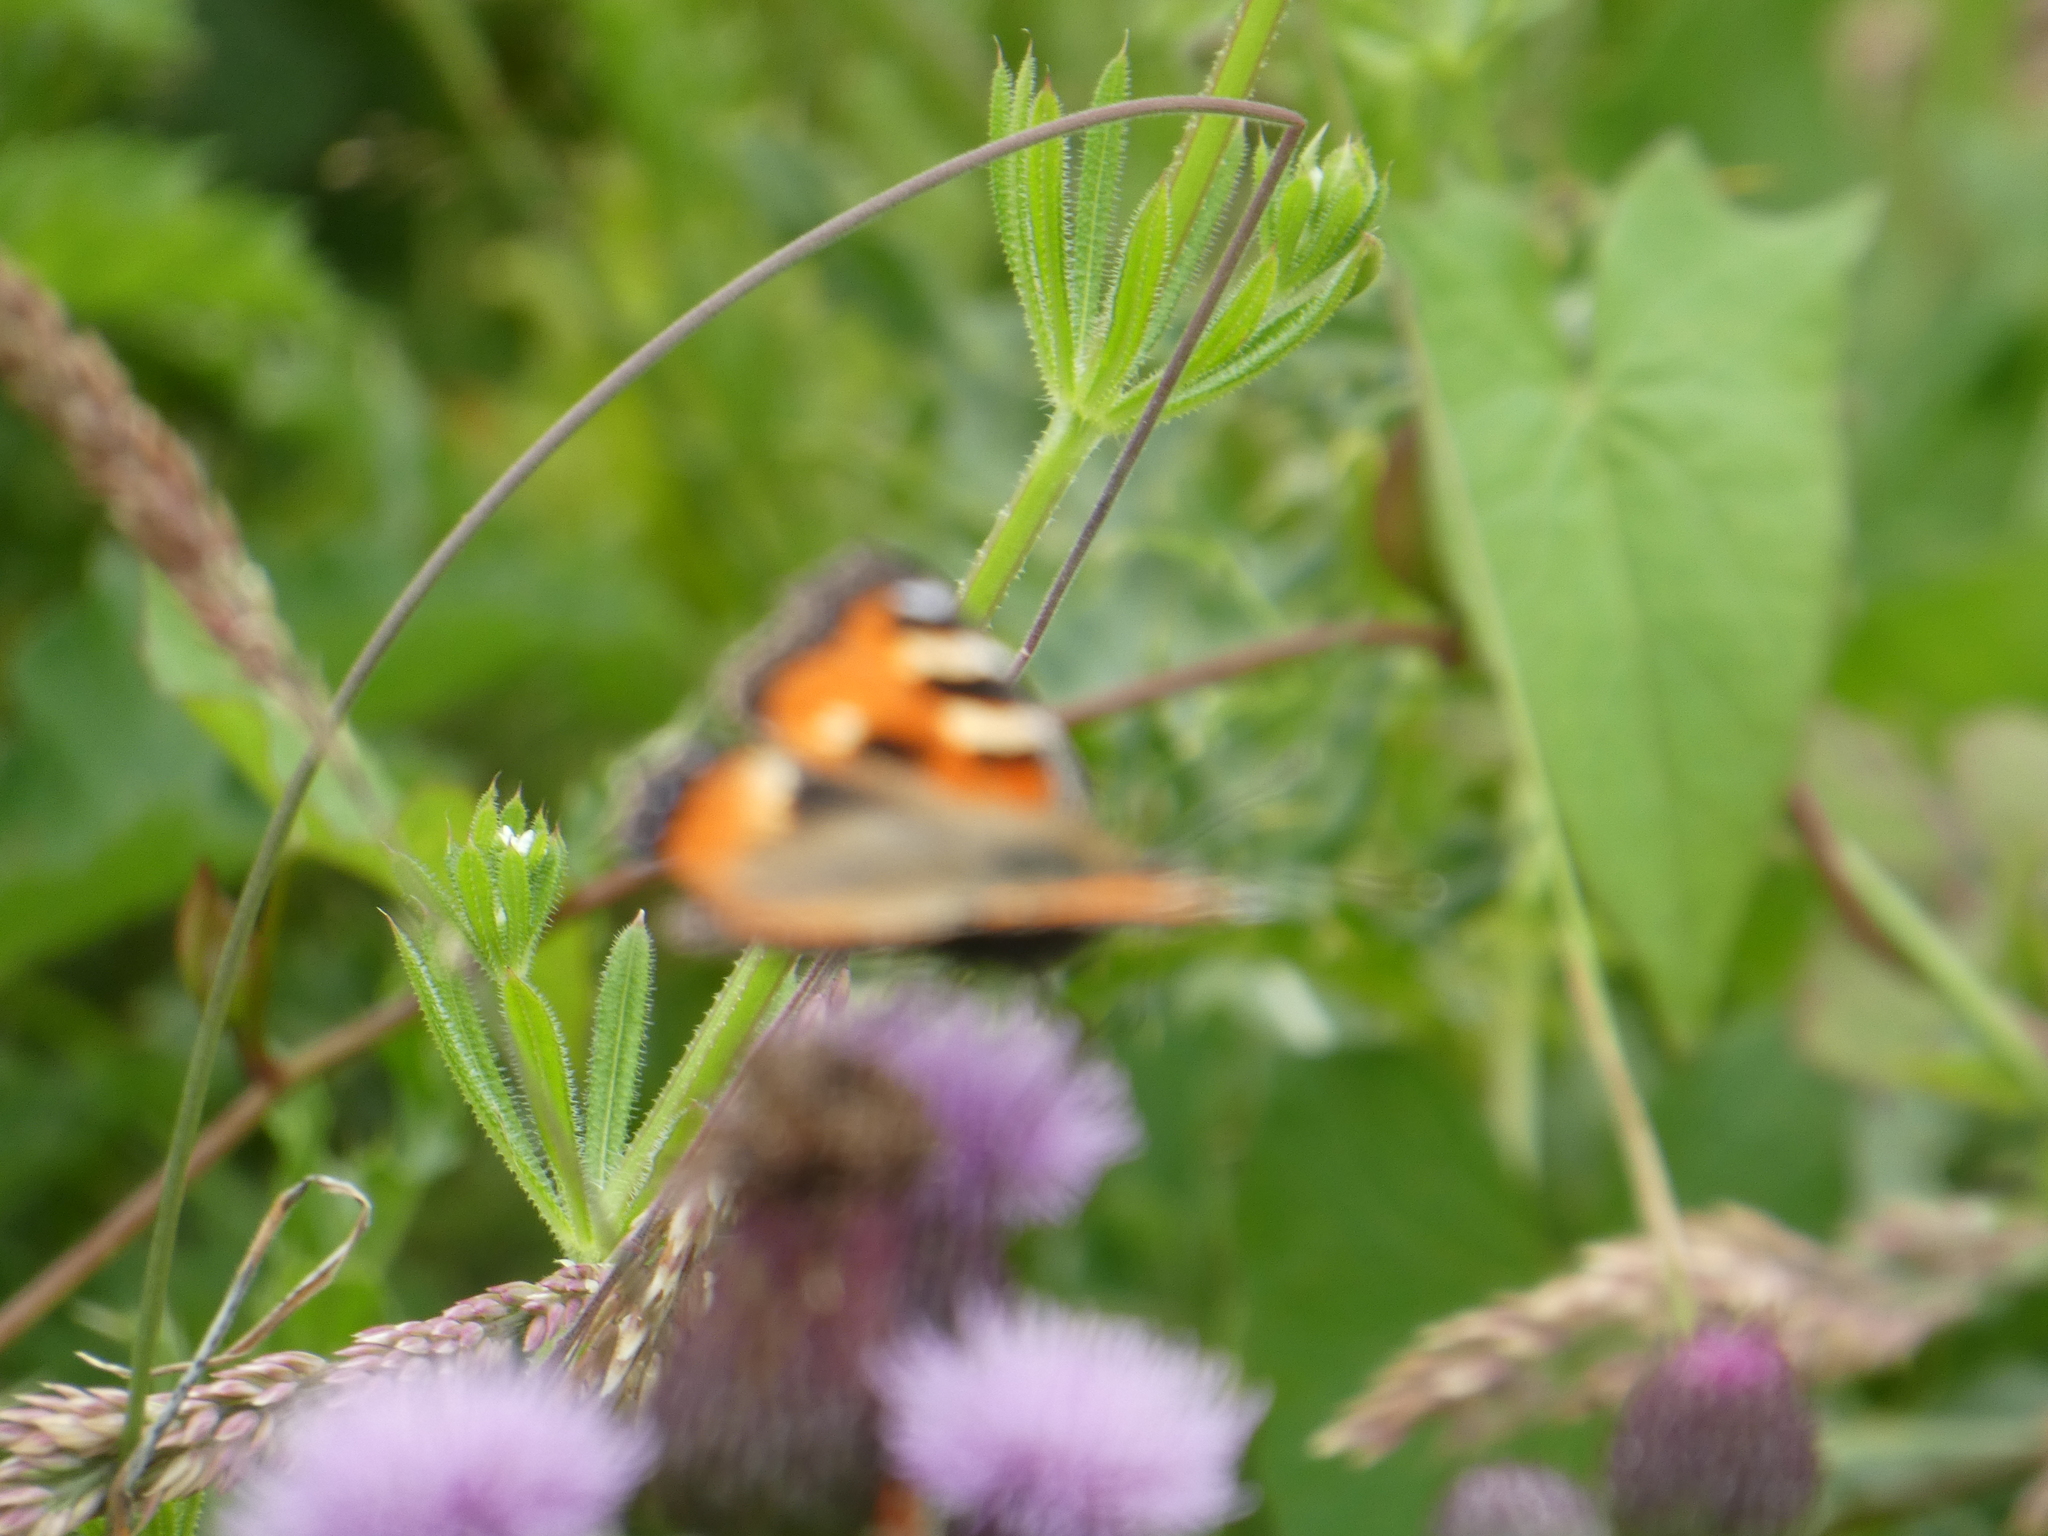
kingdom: Animalia
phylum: Arthropoda
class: Insecta
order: Lepidoptera
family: Nymphalidae
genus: Aglais
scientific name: Aglais urticae
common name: Small tortoiseshell
